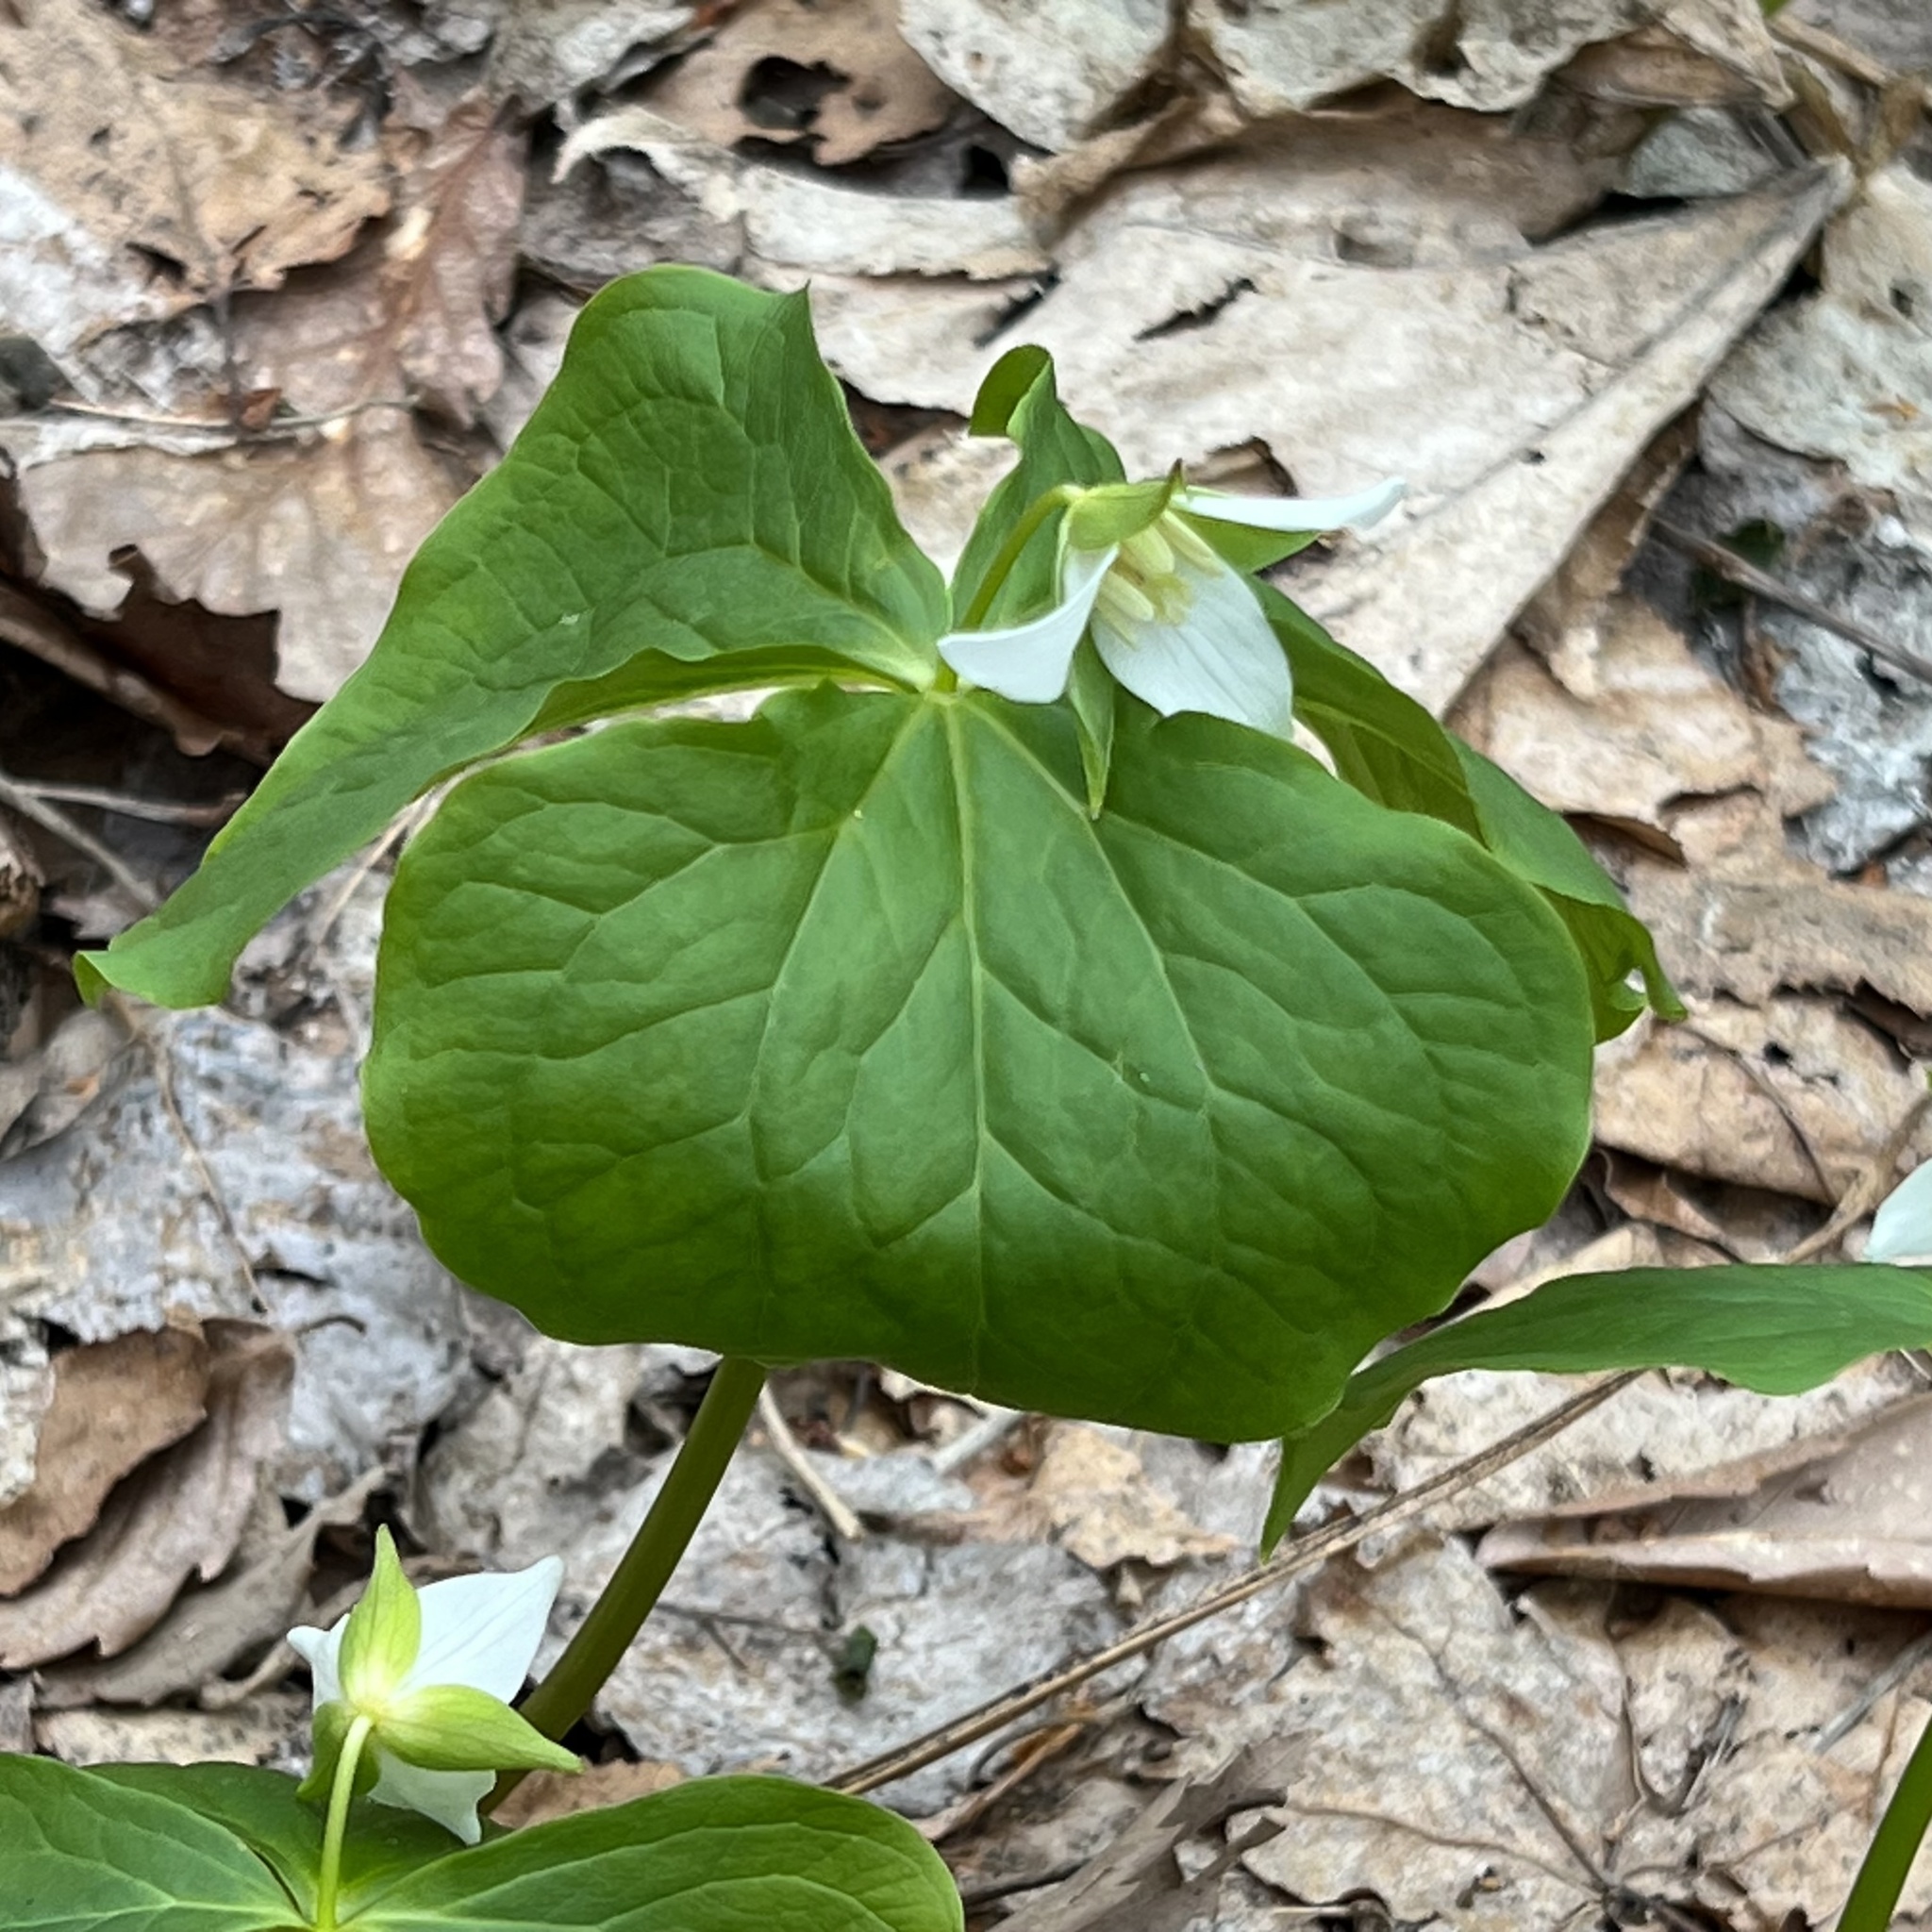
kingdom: Plantae
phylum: Tracheophyta
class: Liliopsida
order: Liliales
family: Melanthiaceae
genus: Trillium
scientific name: Trillium tschonoskii
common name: A pearl on head
